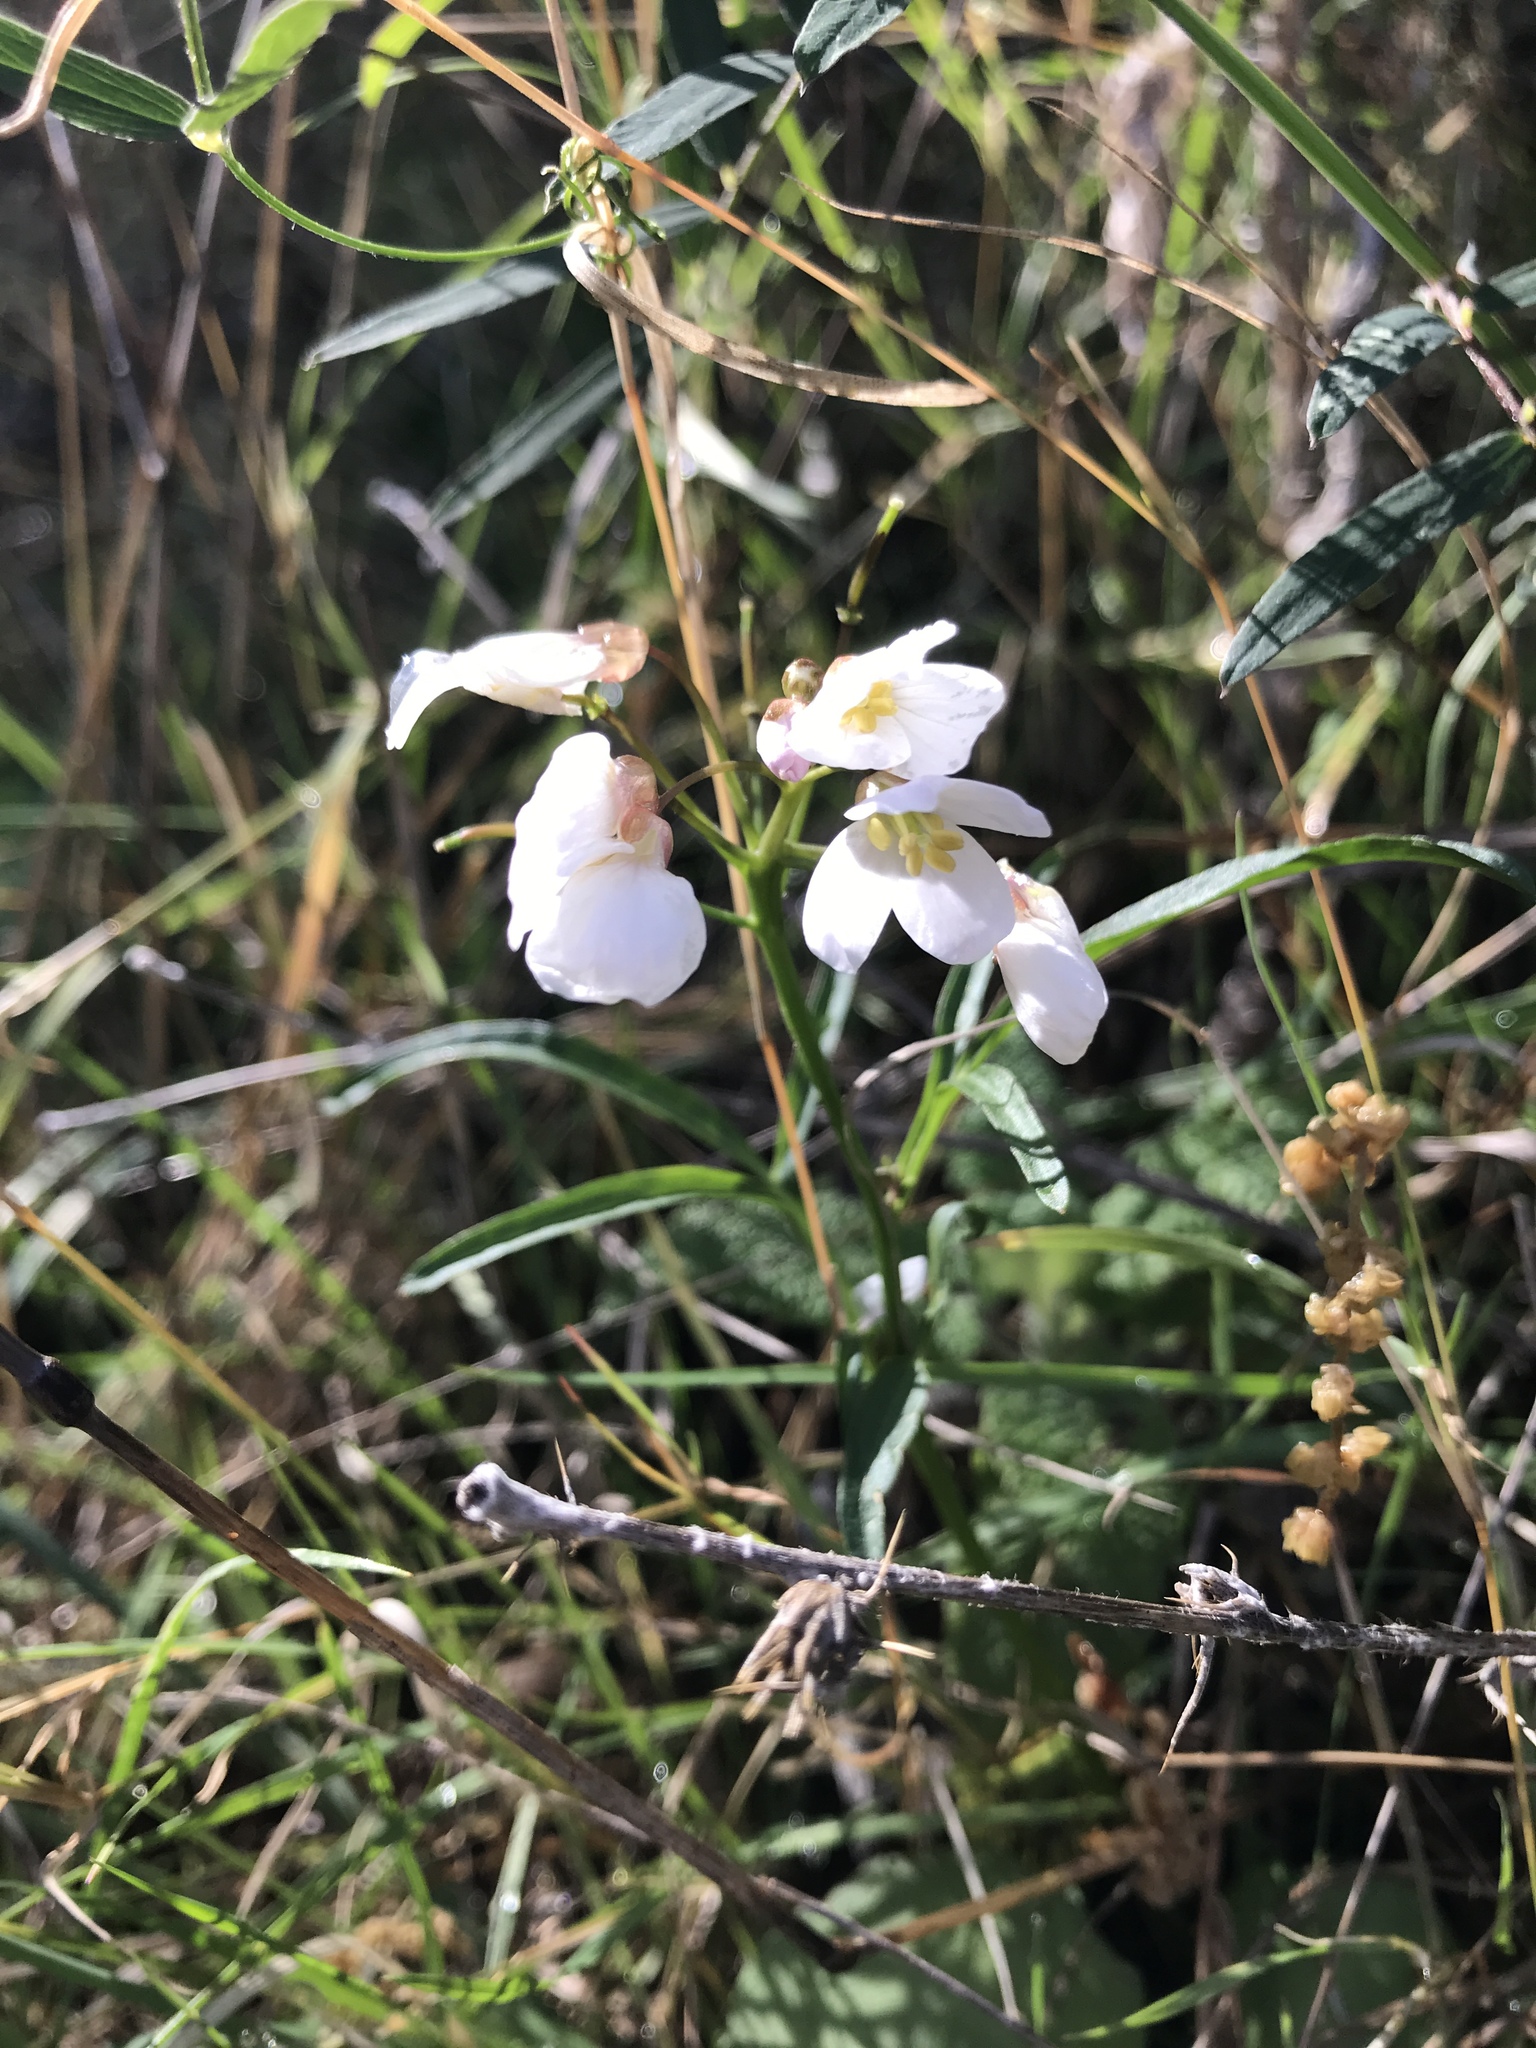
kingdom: Plantae
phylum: Tracheophyta
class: Magnoliopsida
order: Brassicales
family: Brassicaceae
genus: Cardamine
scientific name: Cardamine californica
